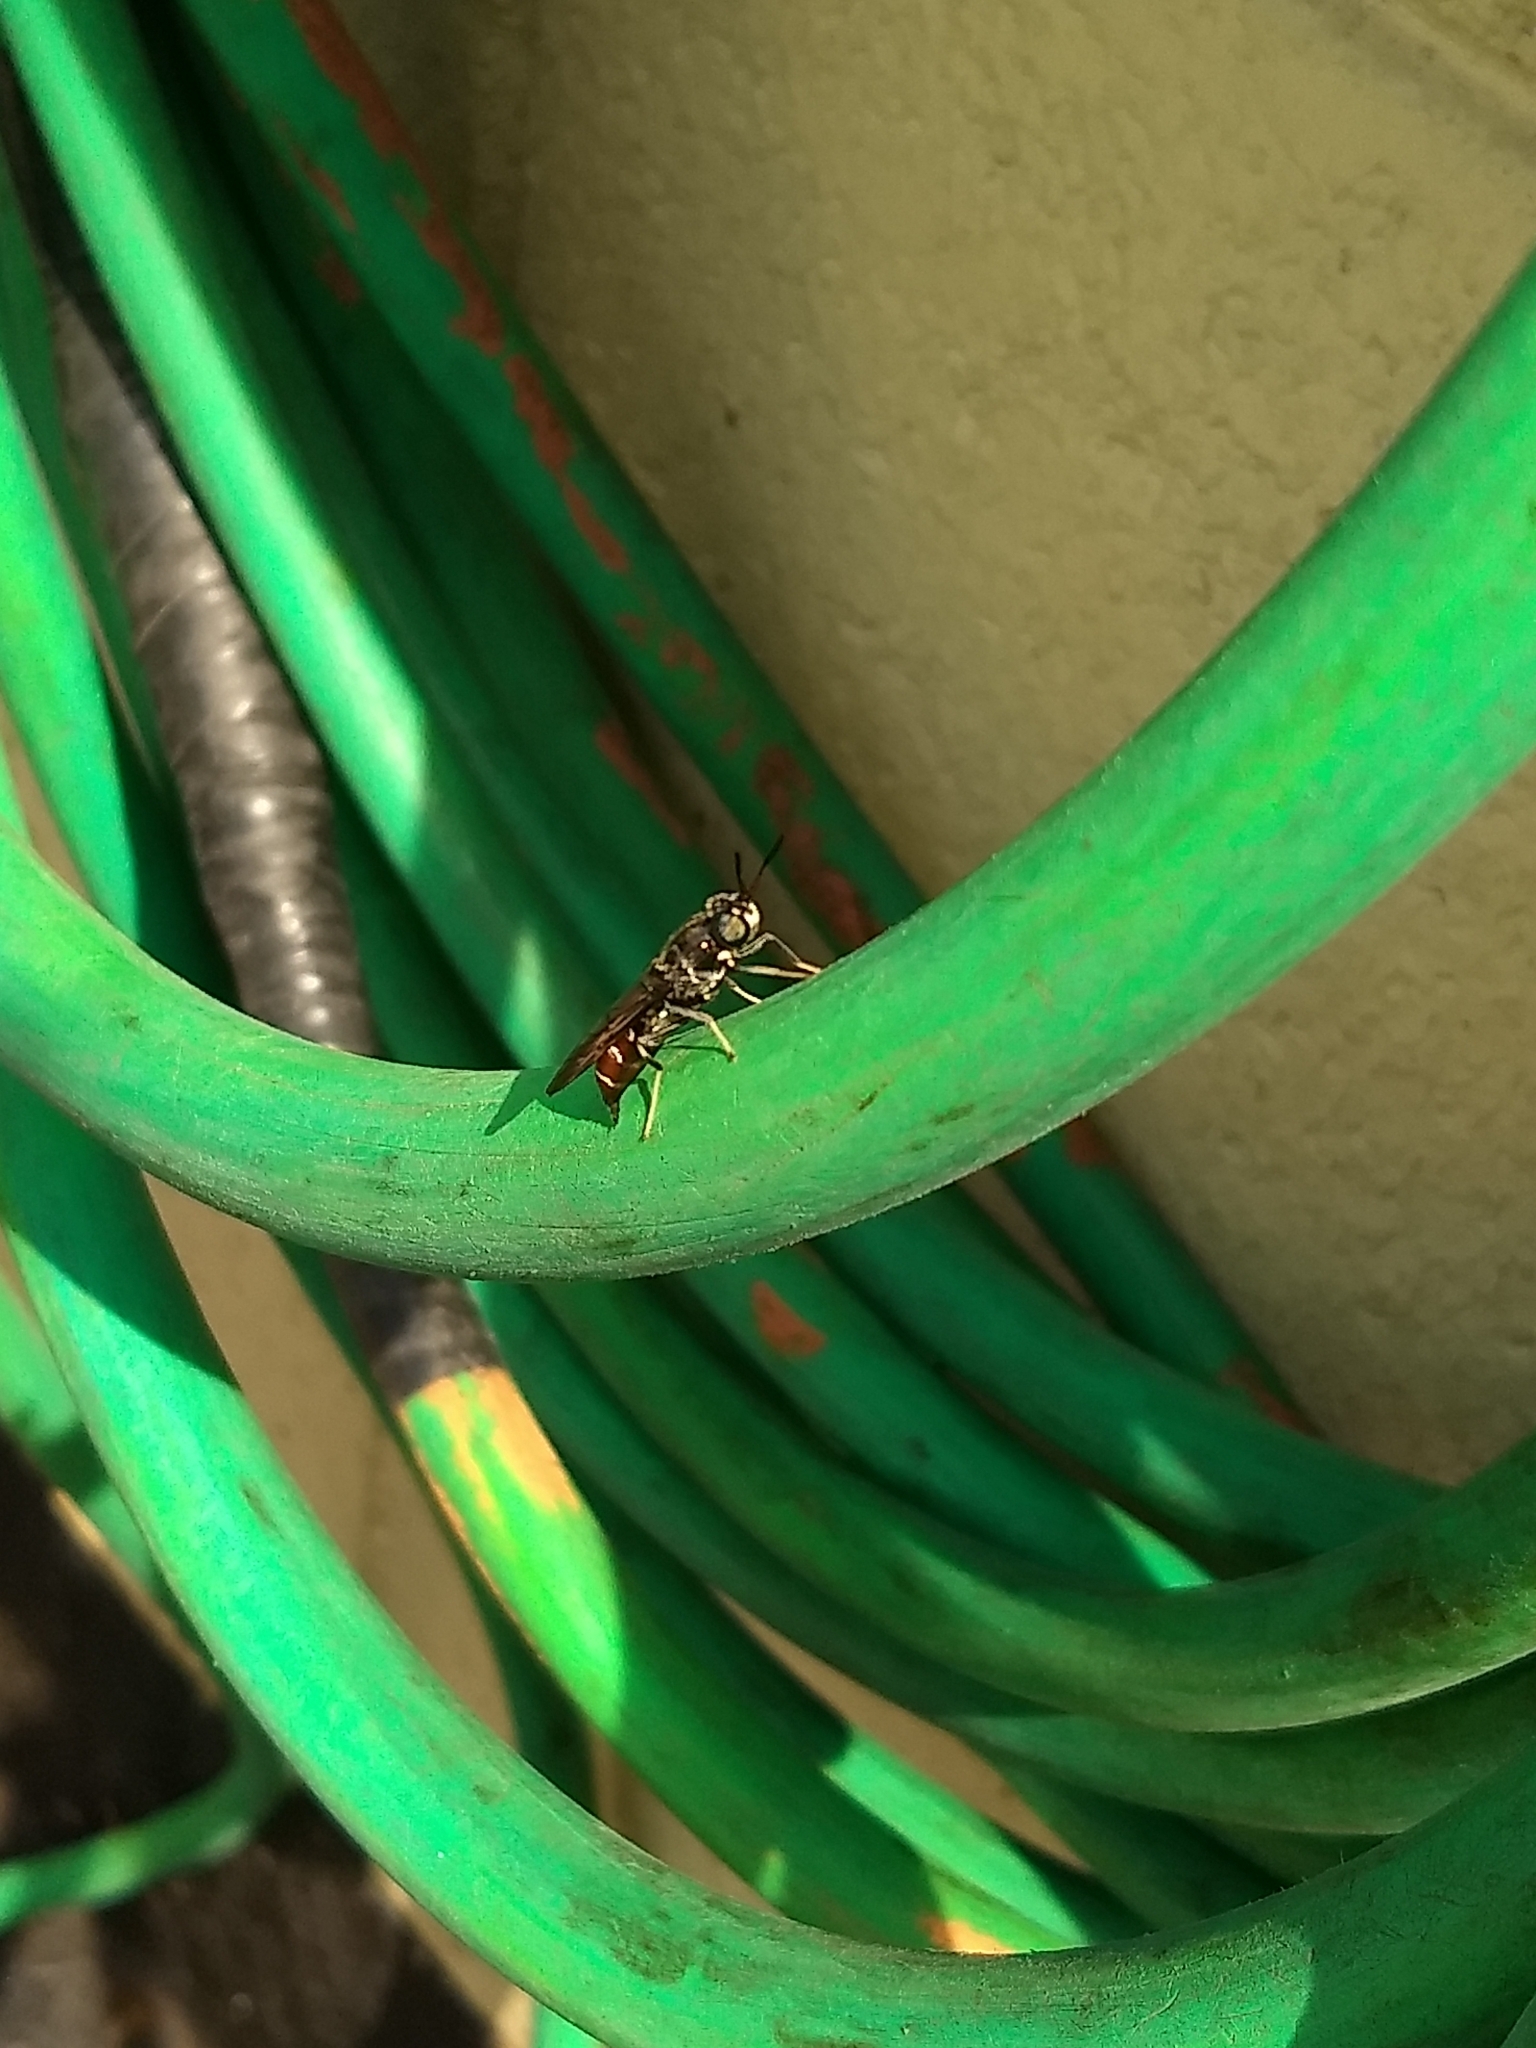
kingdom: Animalia
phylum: Arthropoda
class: Insecta
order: Diptera
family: Stratiomyidae
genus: Hermetia
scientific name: Hermetia illucens
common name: Black soldier fly
